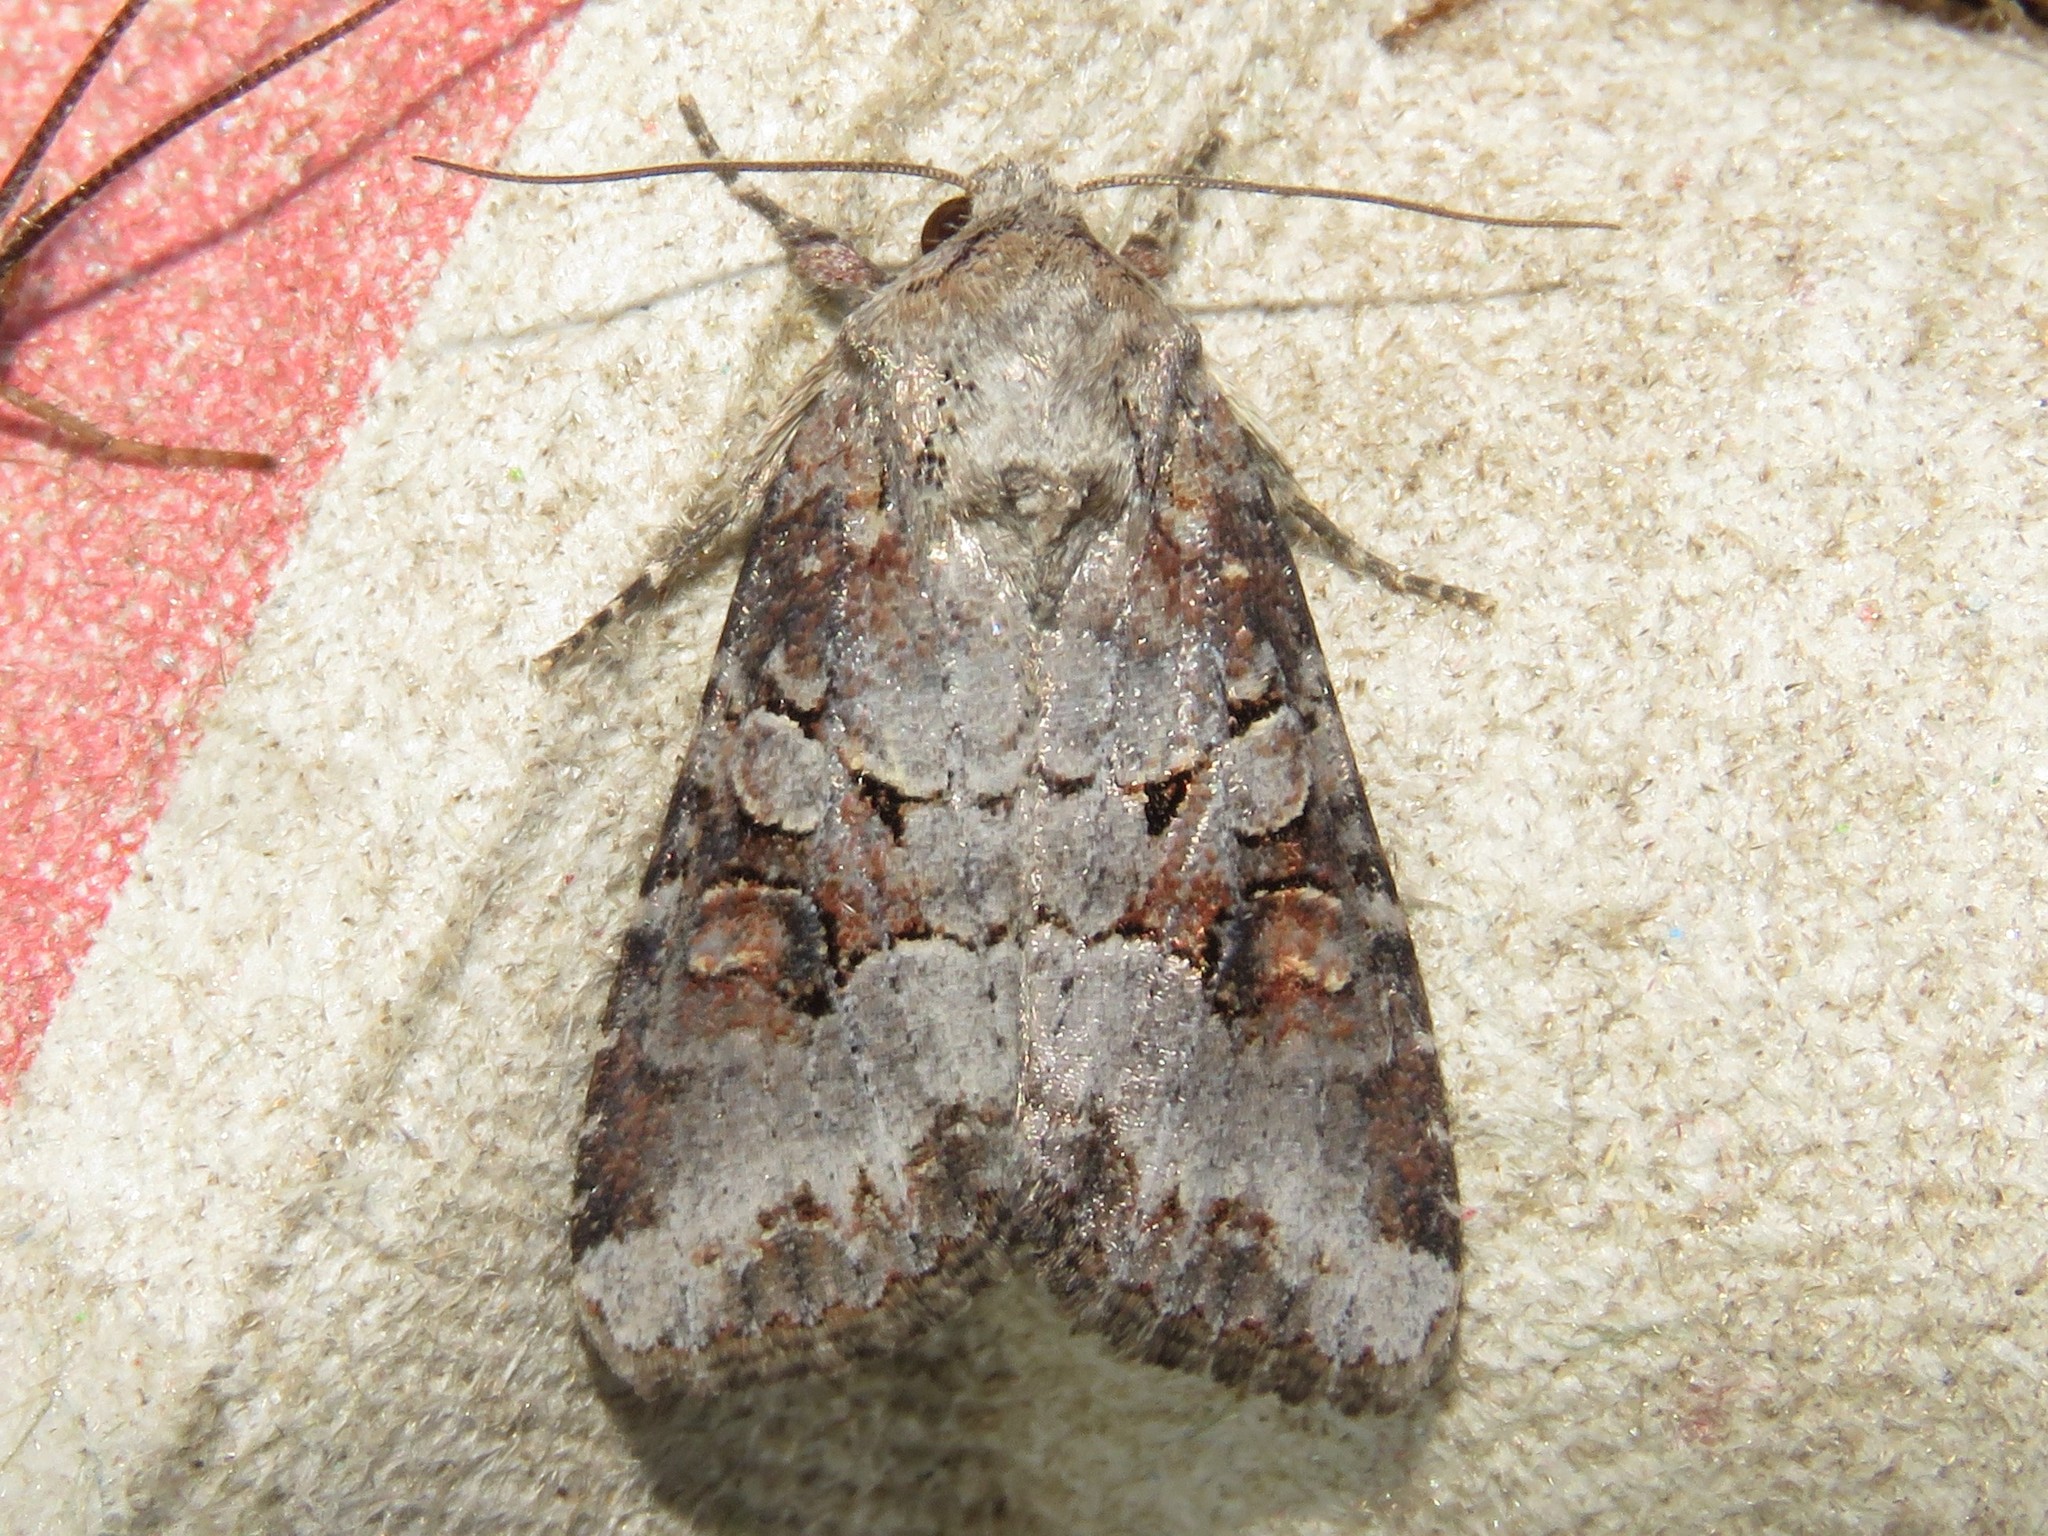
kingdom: Animalia
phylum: Arthropoda
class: Insecta
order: Lepidoptera
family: Noctuidae
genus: Trichordestra
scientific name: Trichordestra legitima
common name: Striped garden caterpillar
